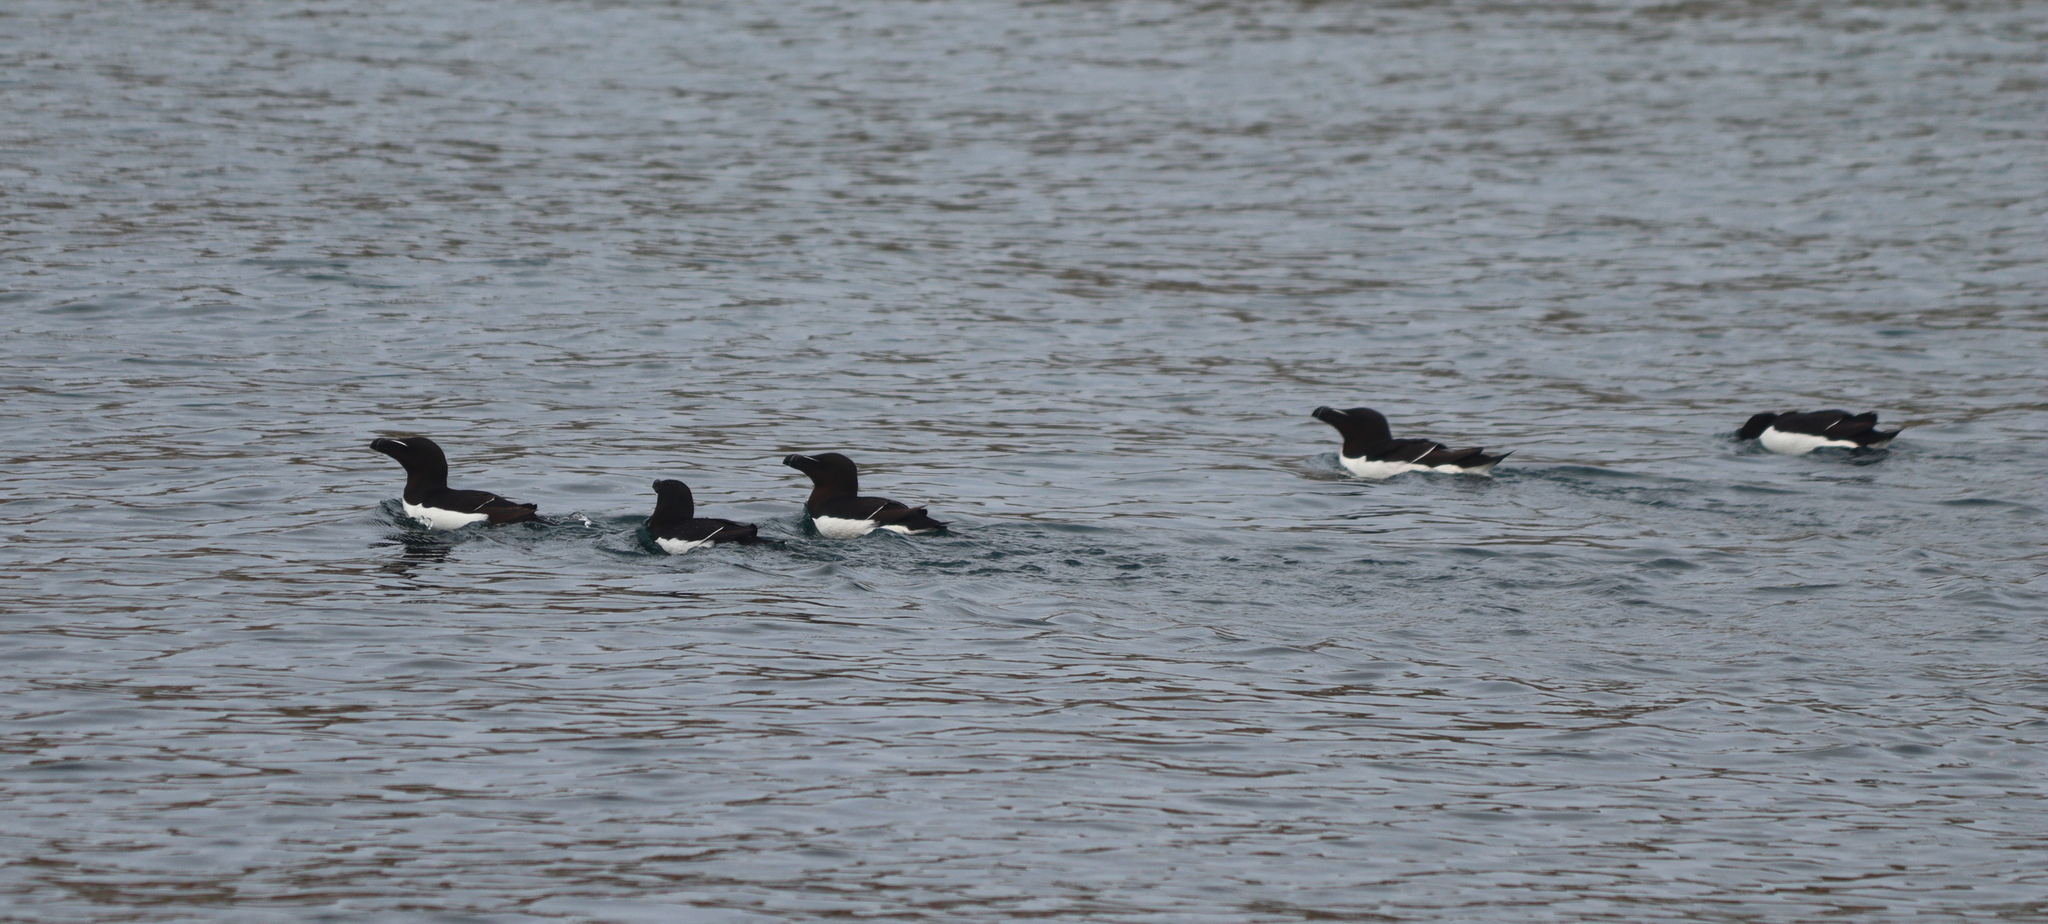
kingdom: Animalia
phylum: Chordata
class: Aves
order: Charadriiformes
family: Alcidae
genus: Alca
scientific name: Alca torda
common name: Razorbill
